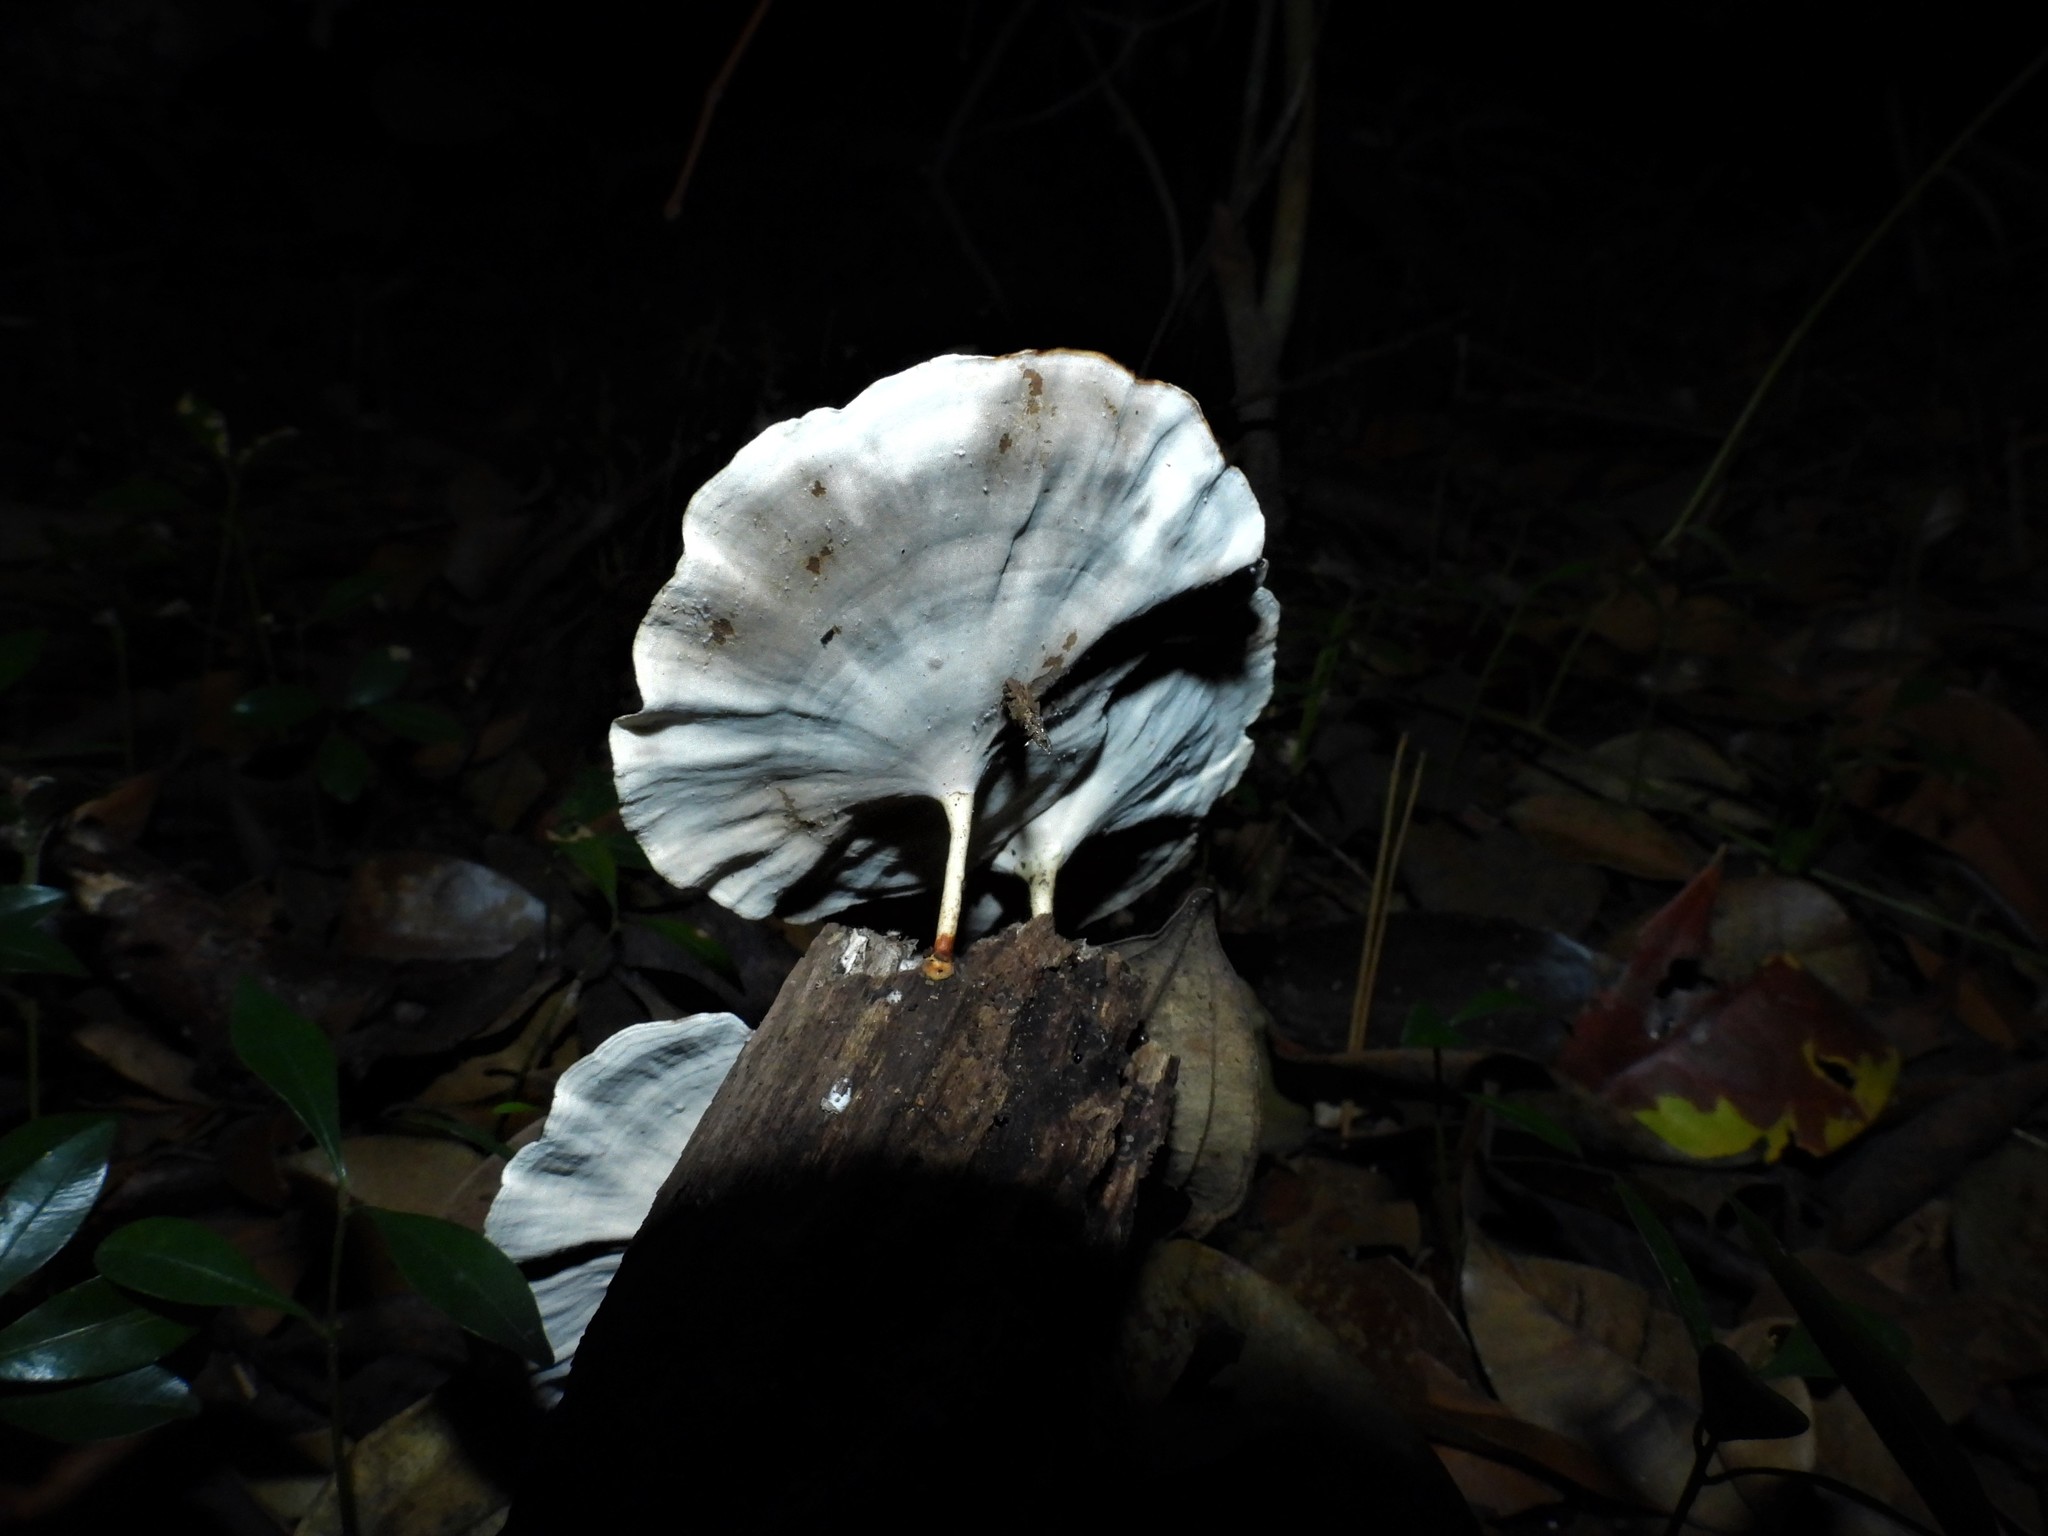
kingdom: Fungi
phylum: Basidiomycota
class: Agaricomycetes
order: Polyporales
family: Polyporaceae
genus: Microporus
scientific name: Microporus xanthopus
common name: Yellow-stemmed micropore
